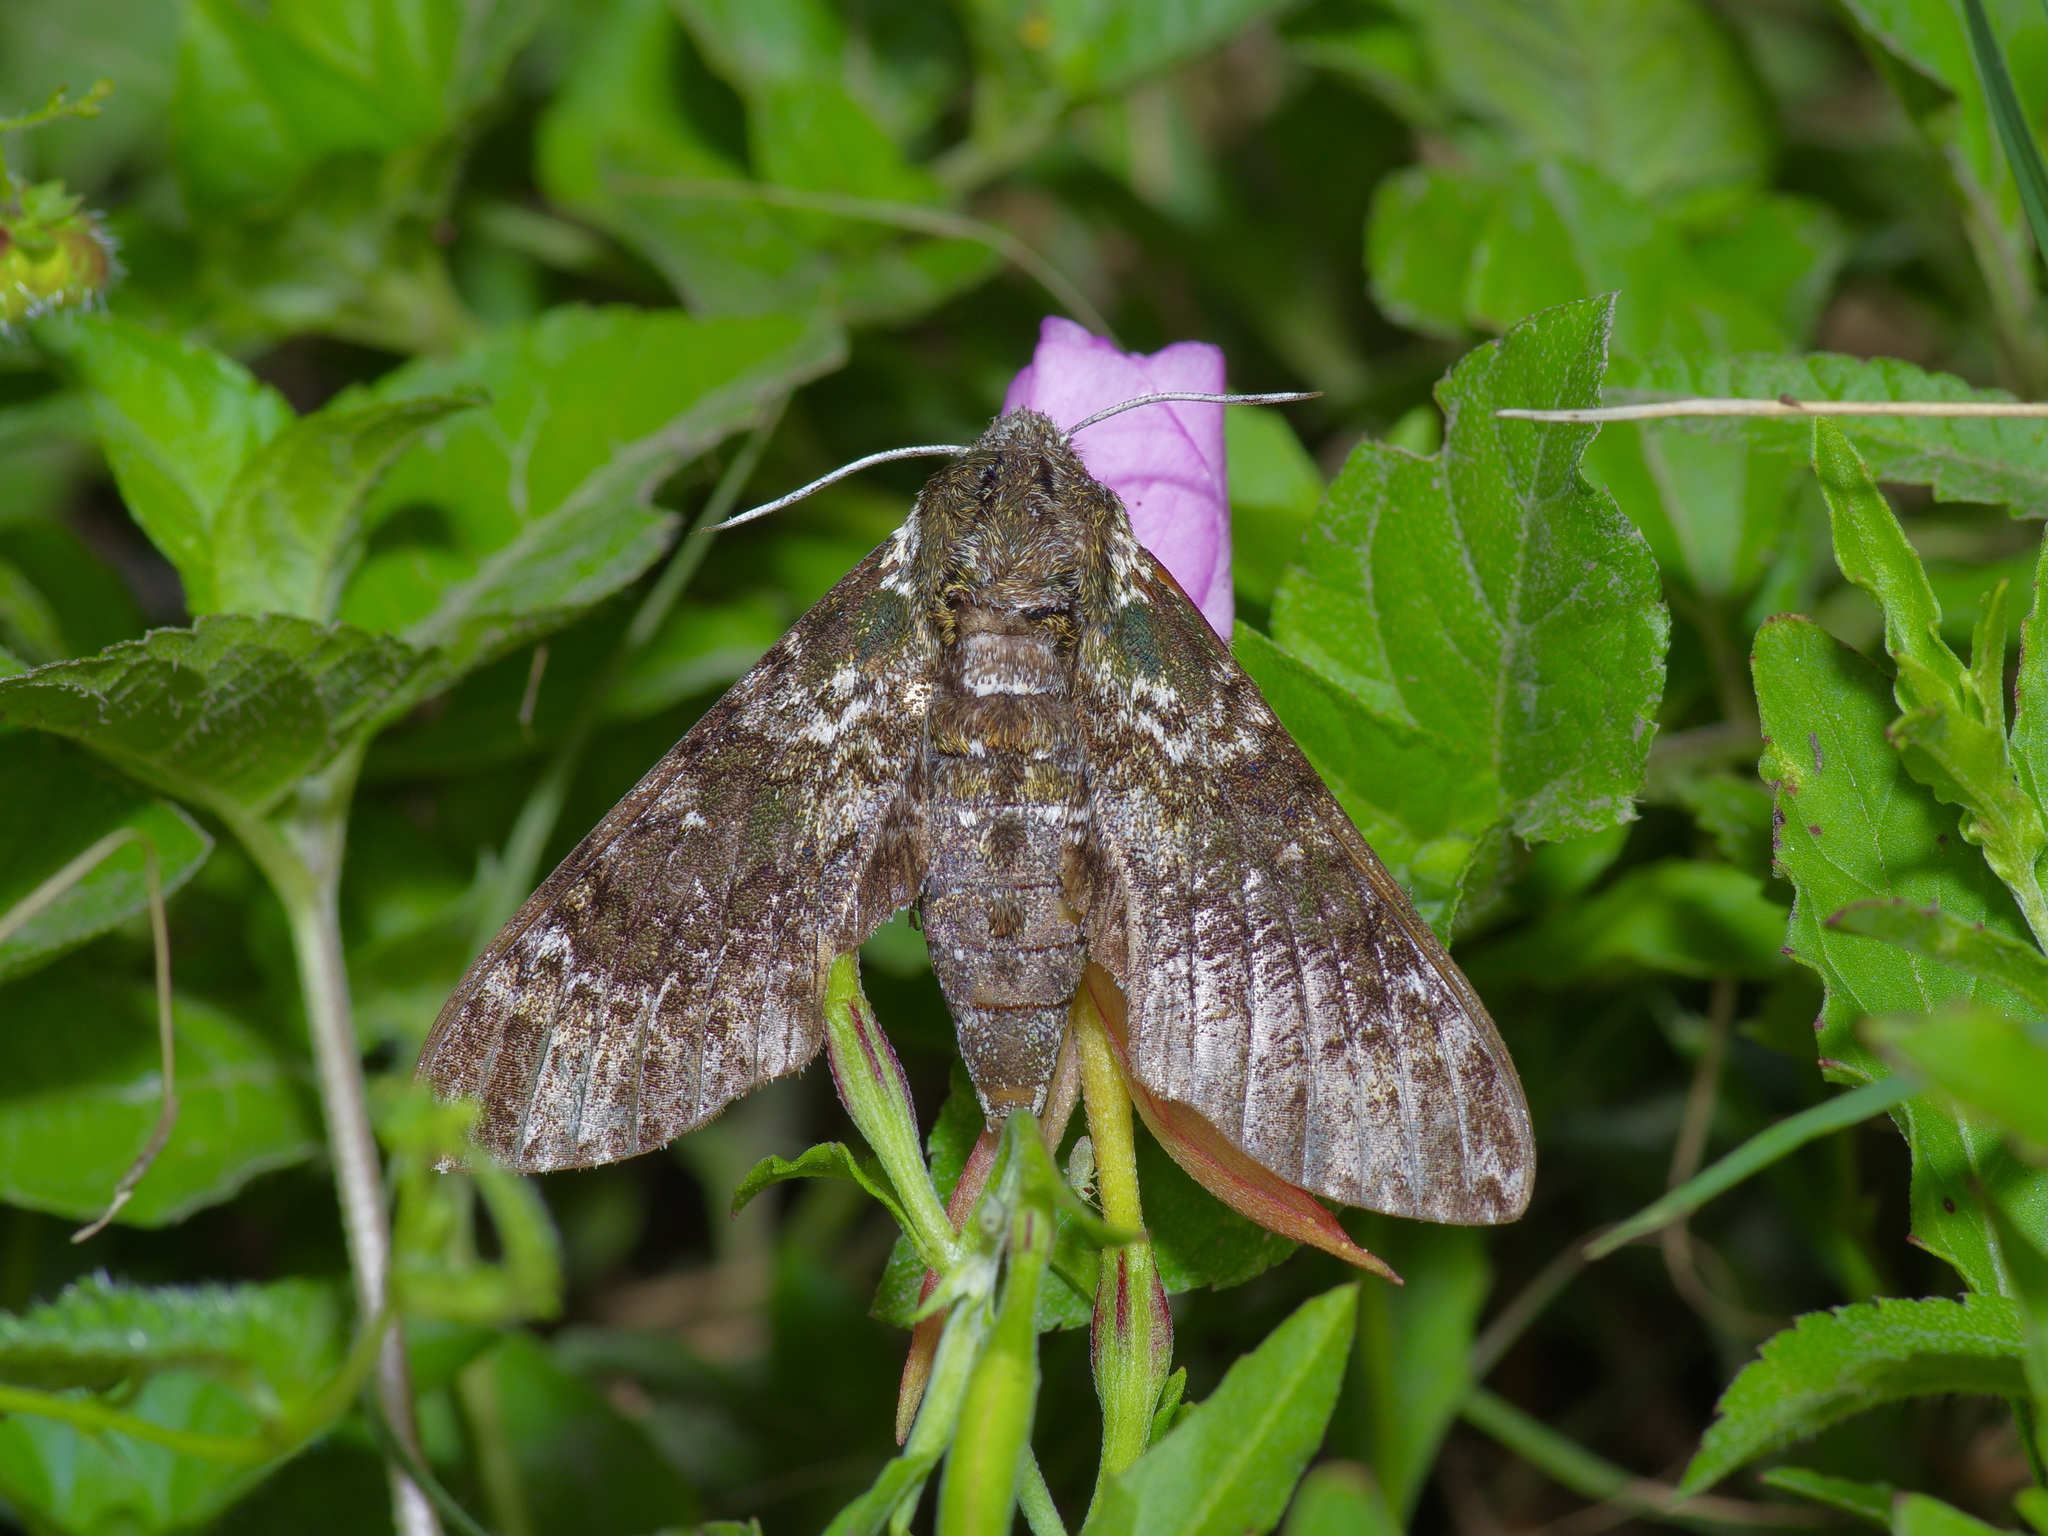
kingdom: Animalia
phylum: Arthropoda
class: Insecta
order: Lepidoptera
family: Sphingidae
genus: Dolba
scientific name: Dolba hyloeus
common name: Pawpaw sphinx
